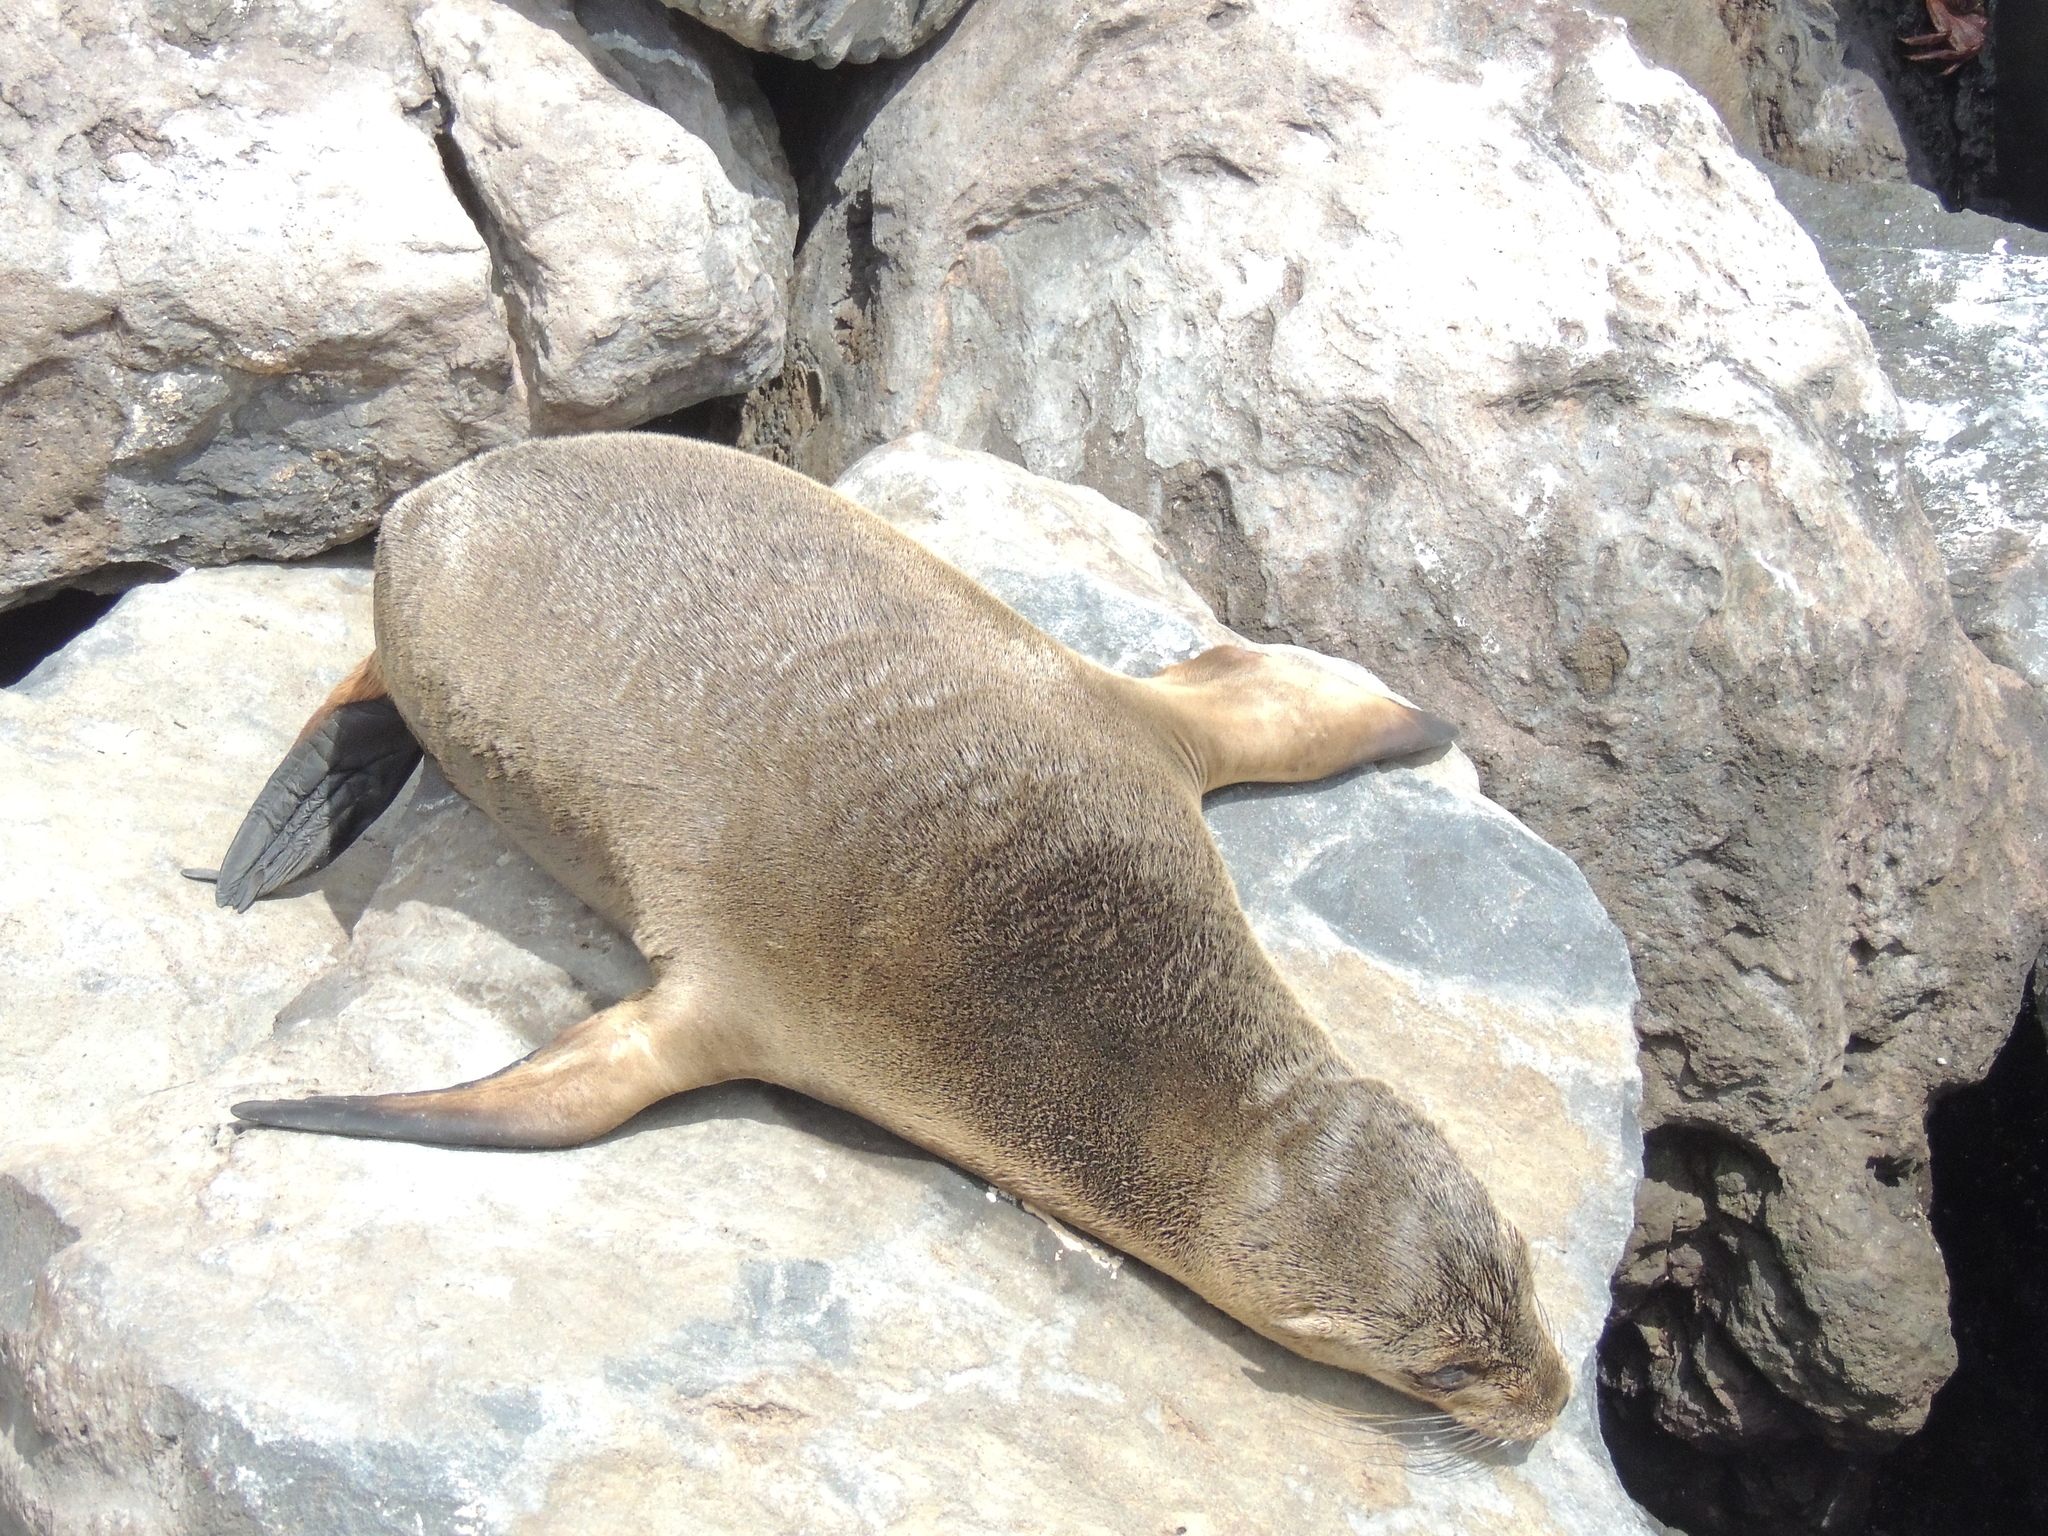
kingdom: Animalia
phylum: Chordata
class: Mammalia
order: Carnivora
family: Otariidae
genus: Zalophus
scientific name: Zalophus wollebaeki
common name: Galapagos sea lion
